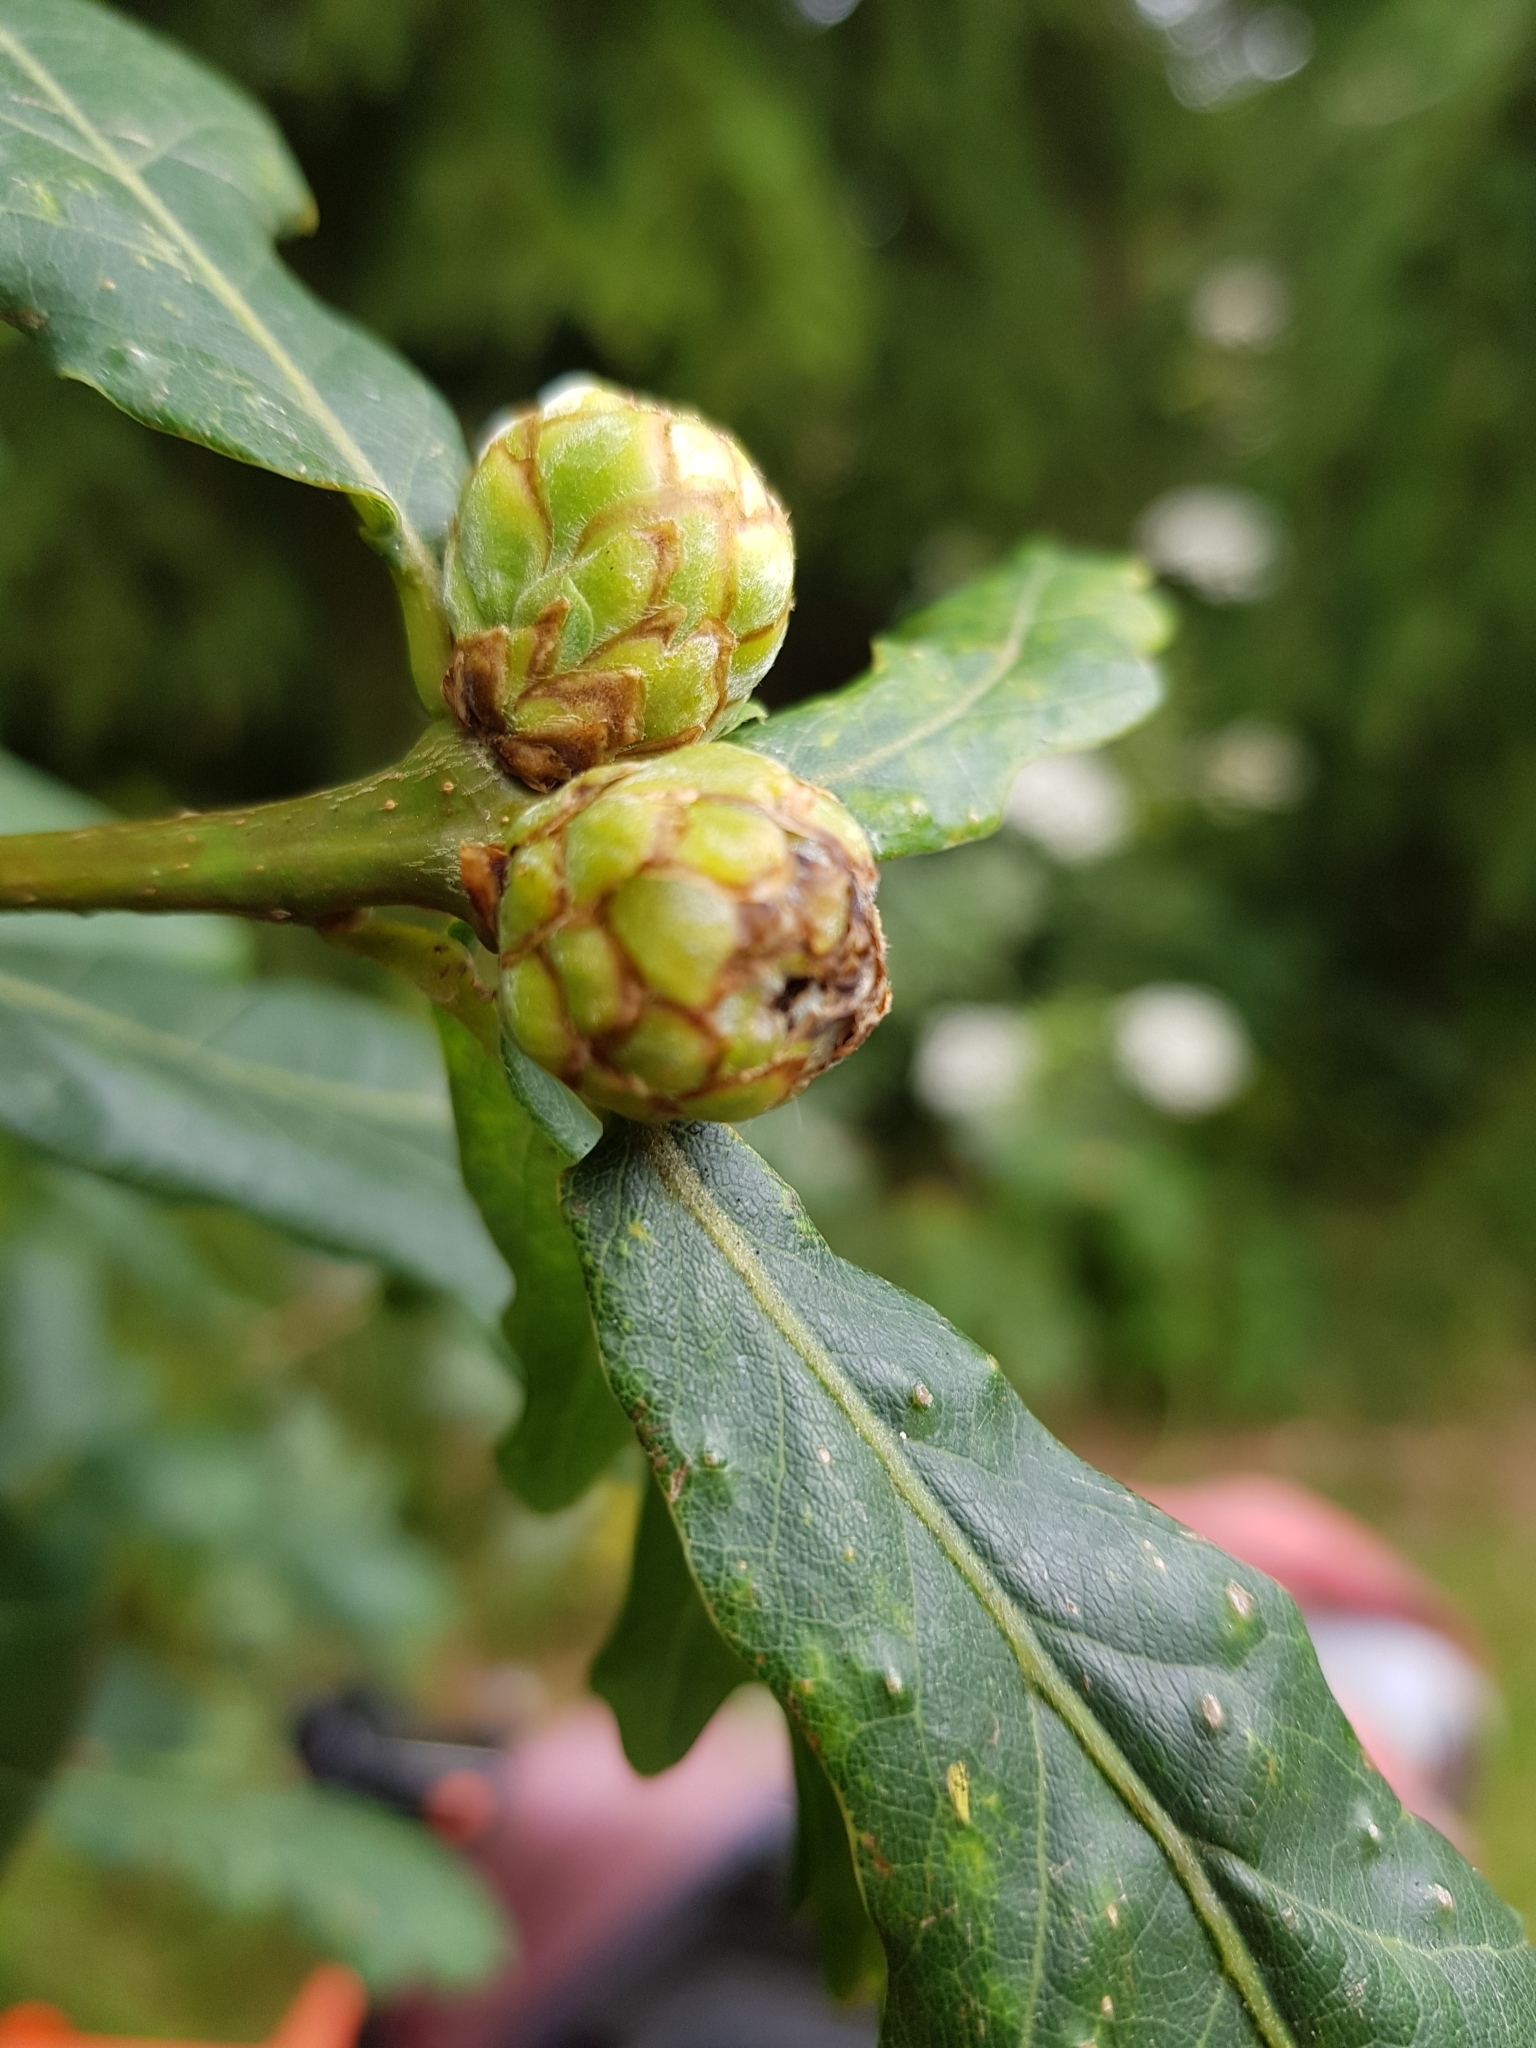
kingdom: Animalia
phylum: Arthropoda
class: Insecta
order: Hymenoptera
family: Cynipidae
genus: Andricus
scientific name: Andricus foecundatrix
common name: Artichoke gall
